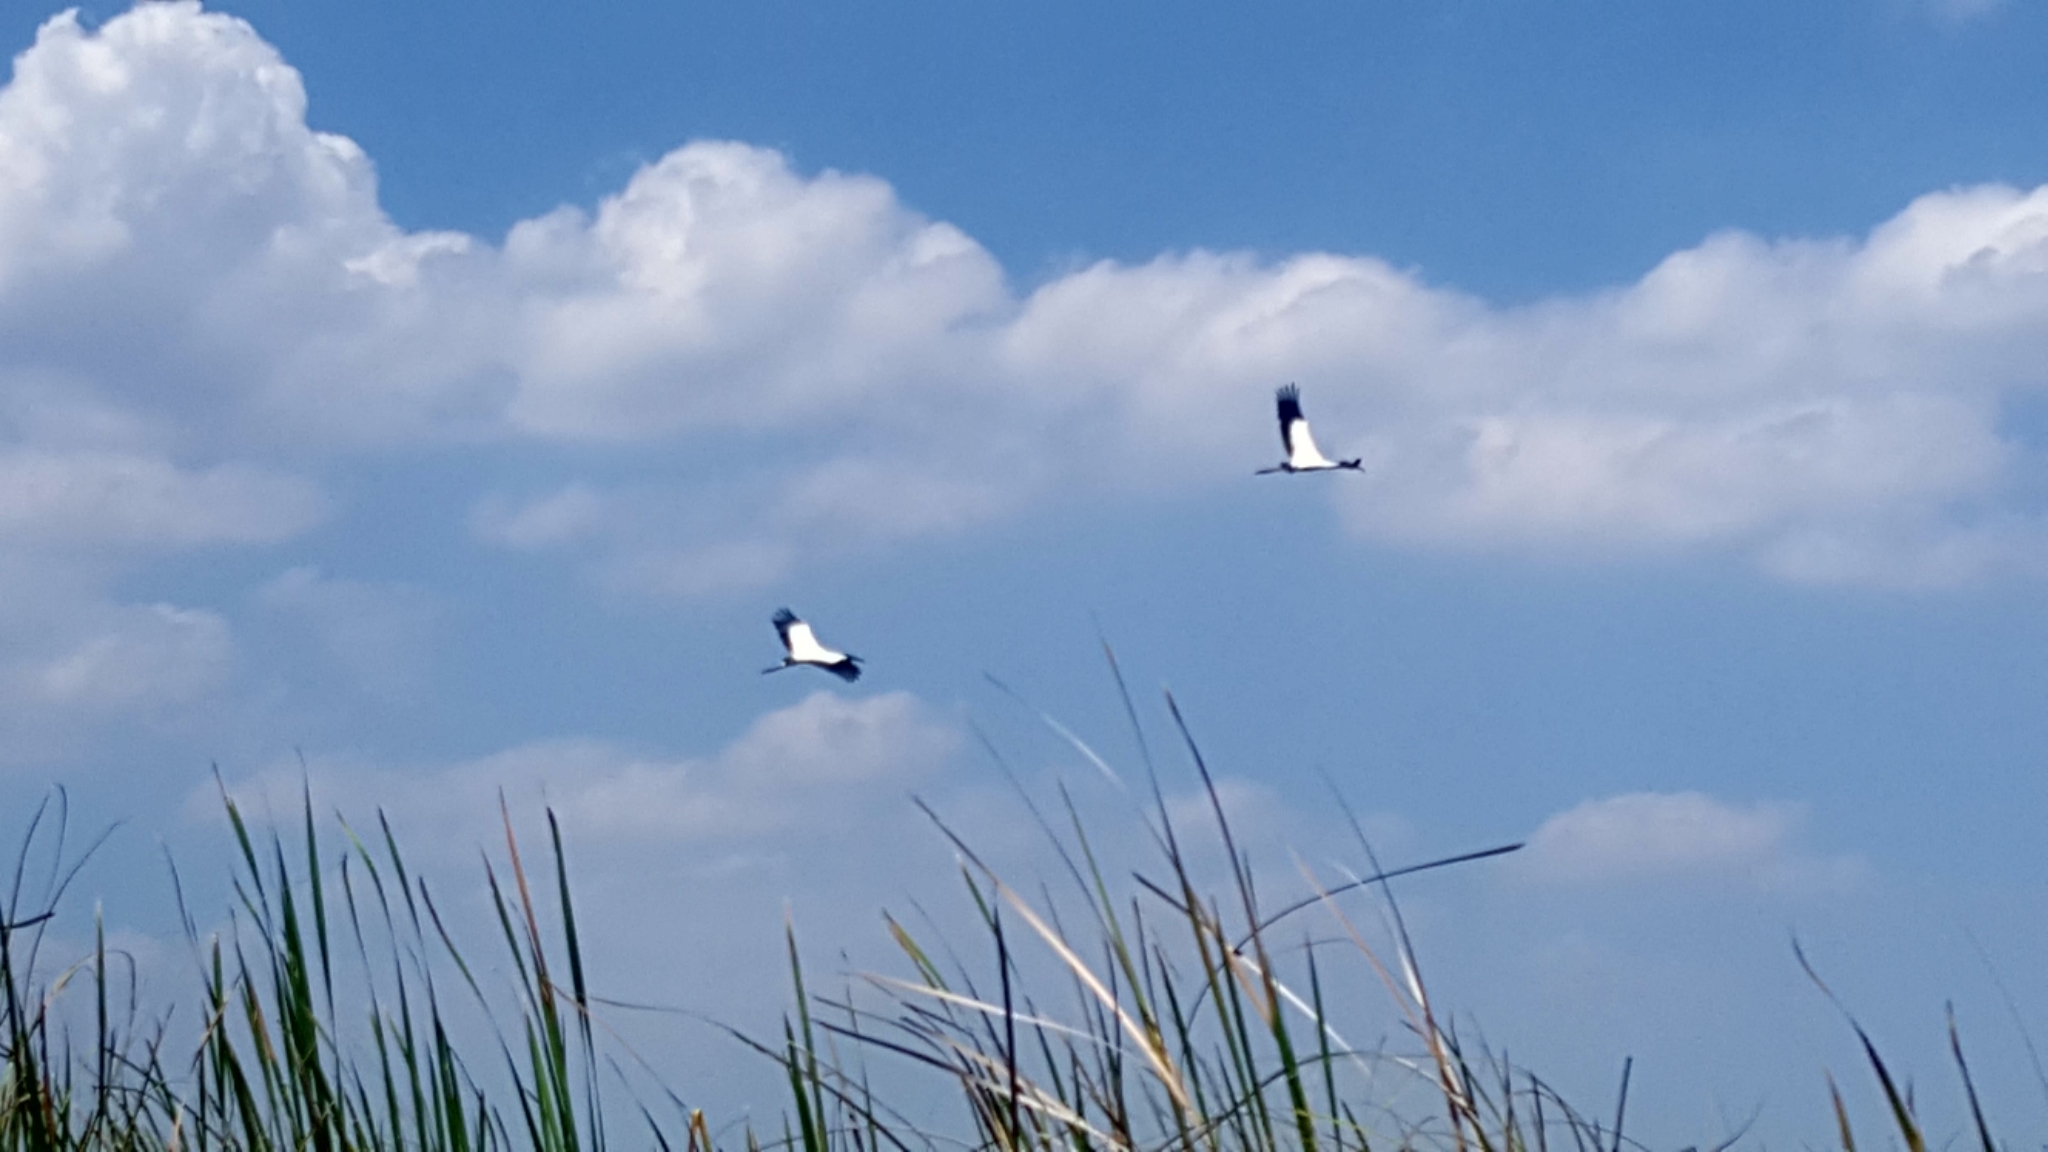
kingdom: Animalia
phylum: Chordata
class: Aves
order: Ciconiiformes
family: Ciconiidae
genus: Mycteria
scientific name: Mycteria americana
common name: Wood stork
